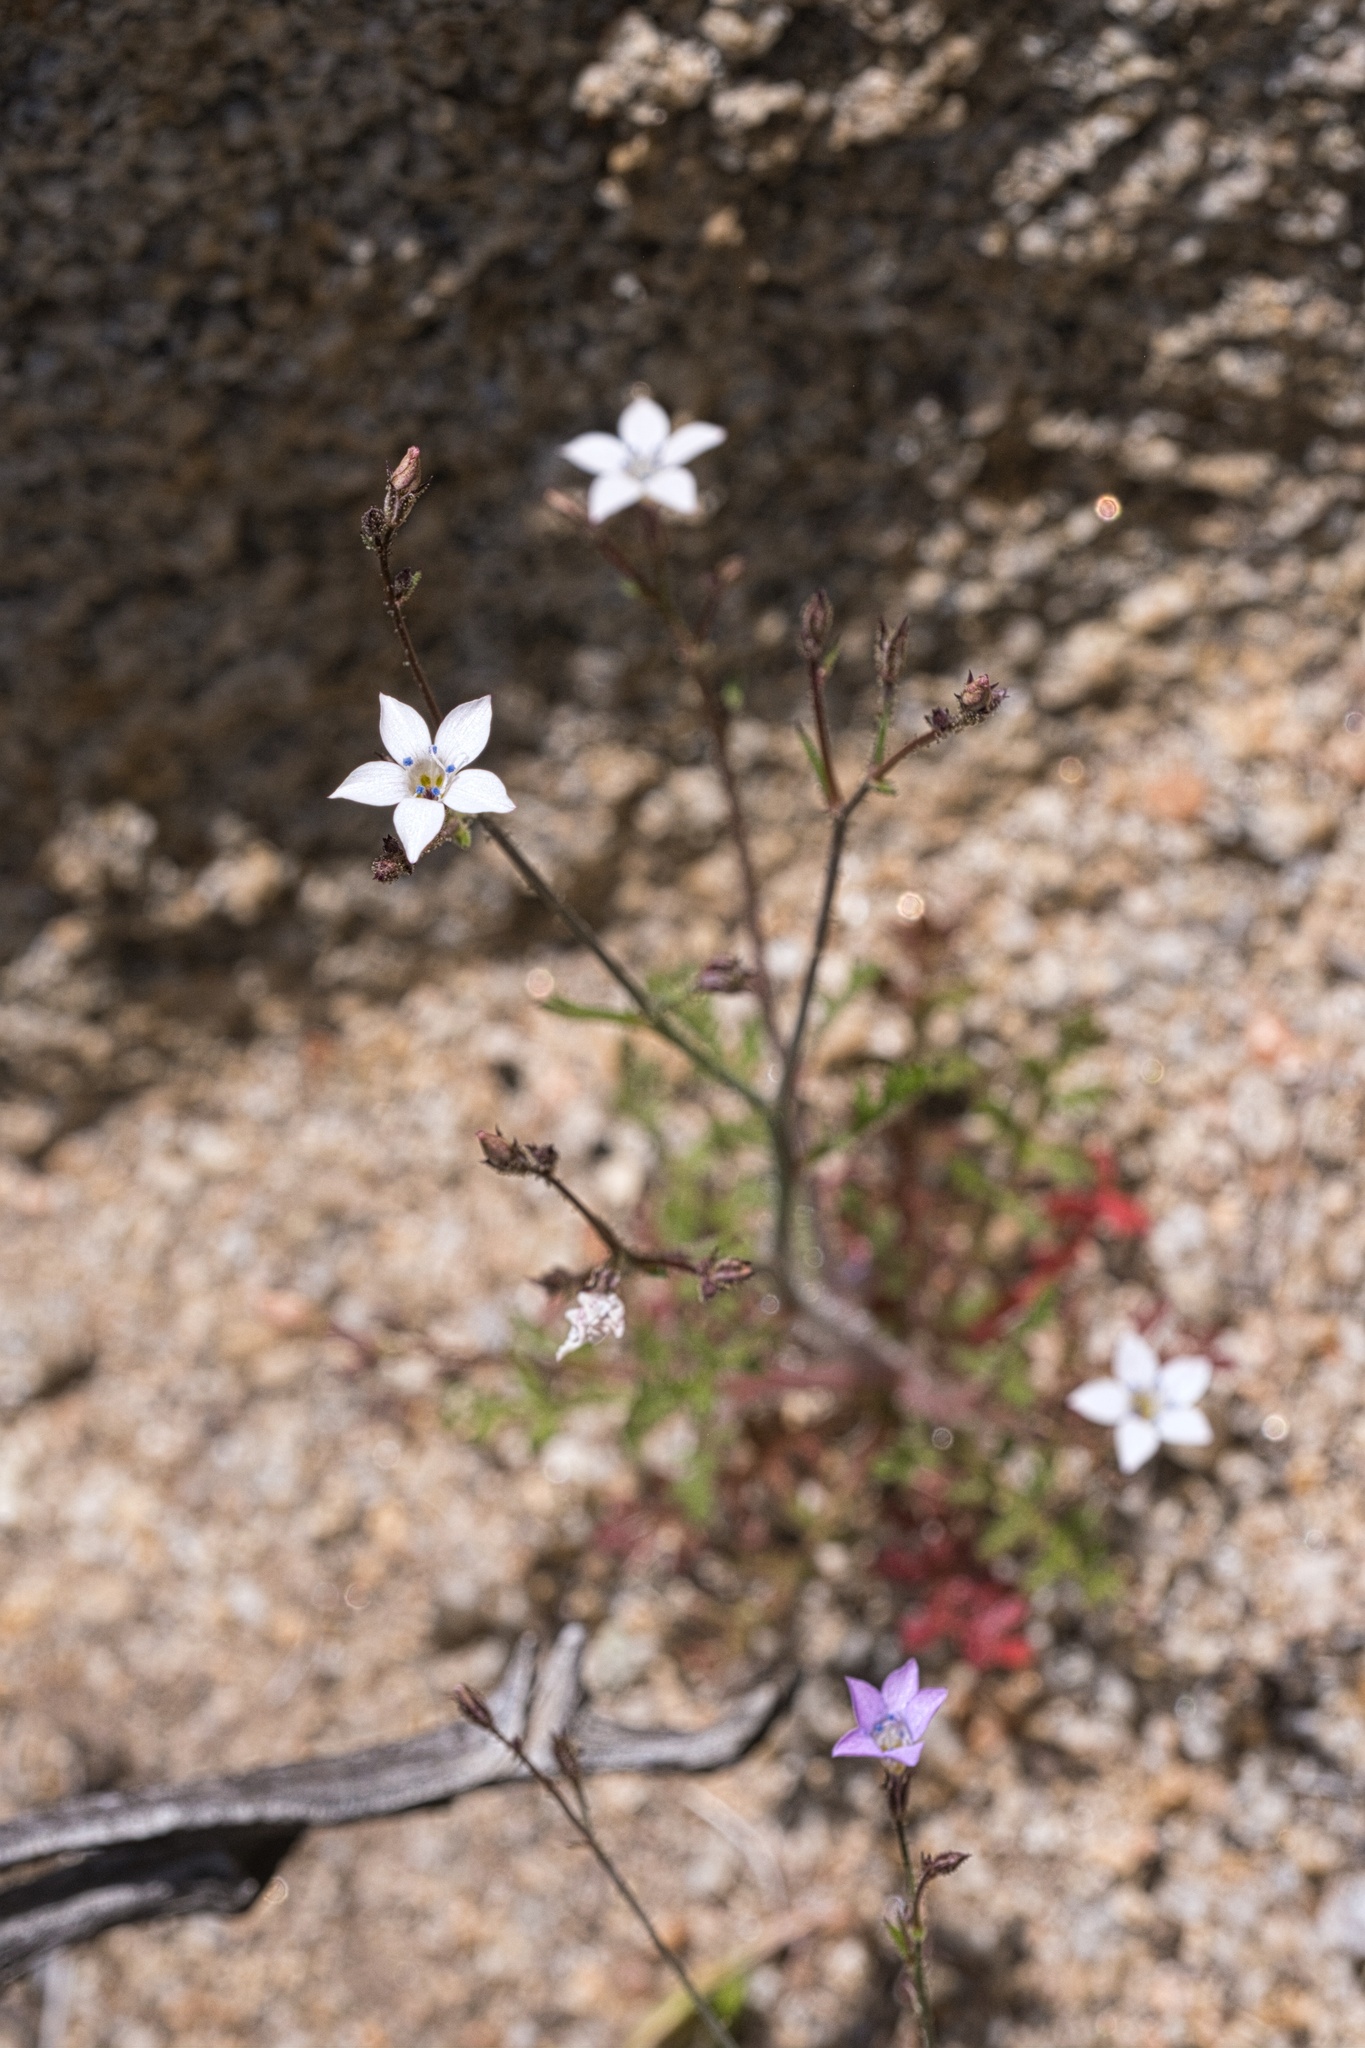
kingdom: Plantae
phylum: Tracheophyta
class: Magnoliopsida
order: Ericales
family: Polemoniaceae
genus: Gilia
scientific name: Gilia latimeri
